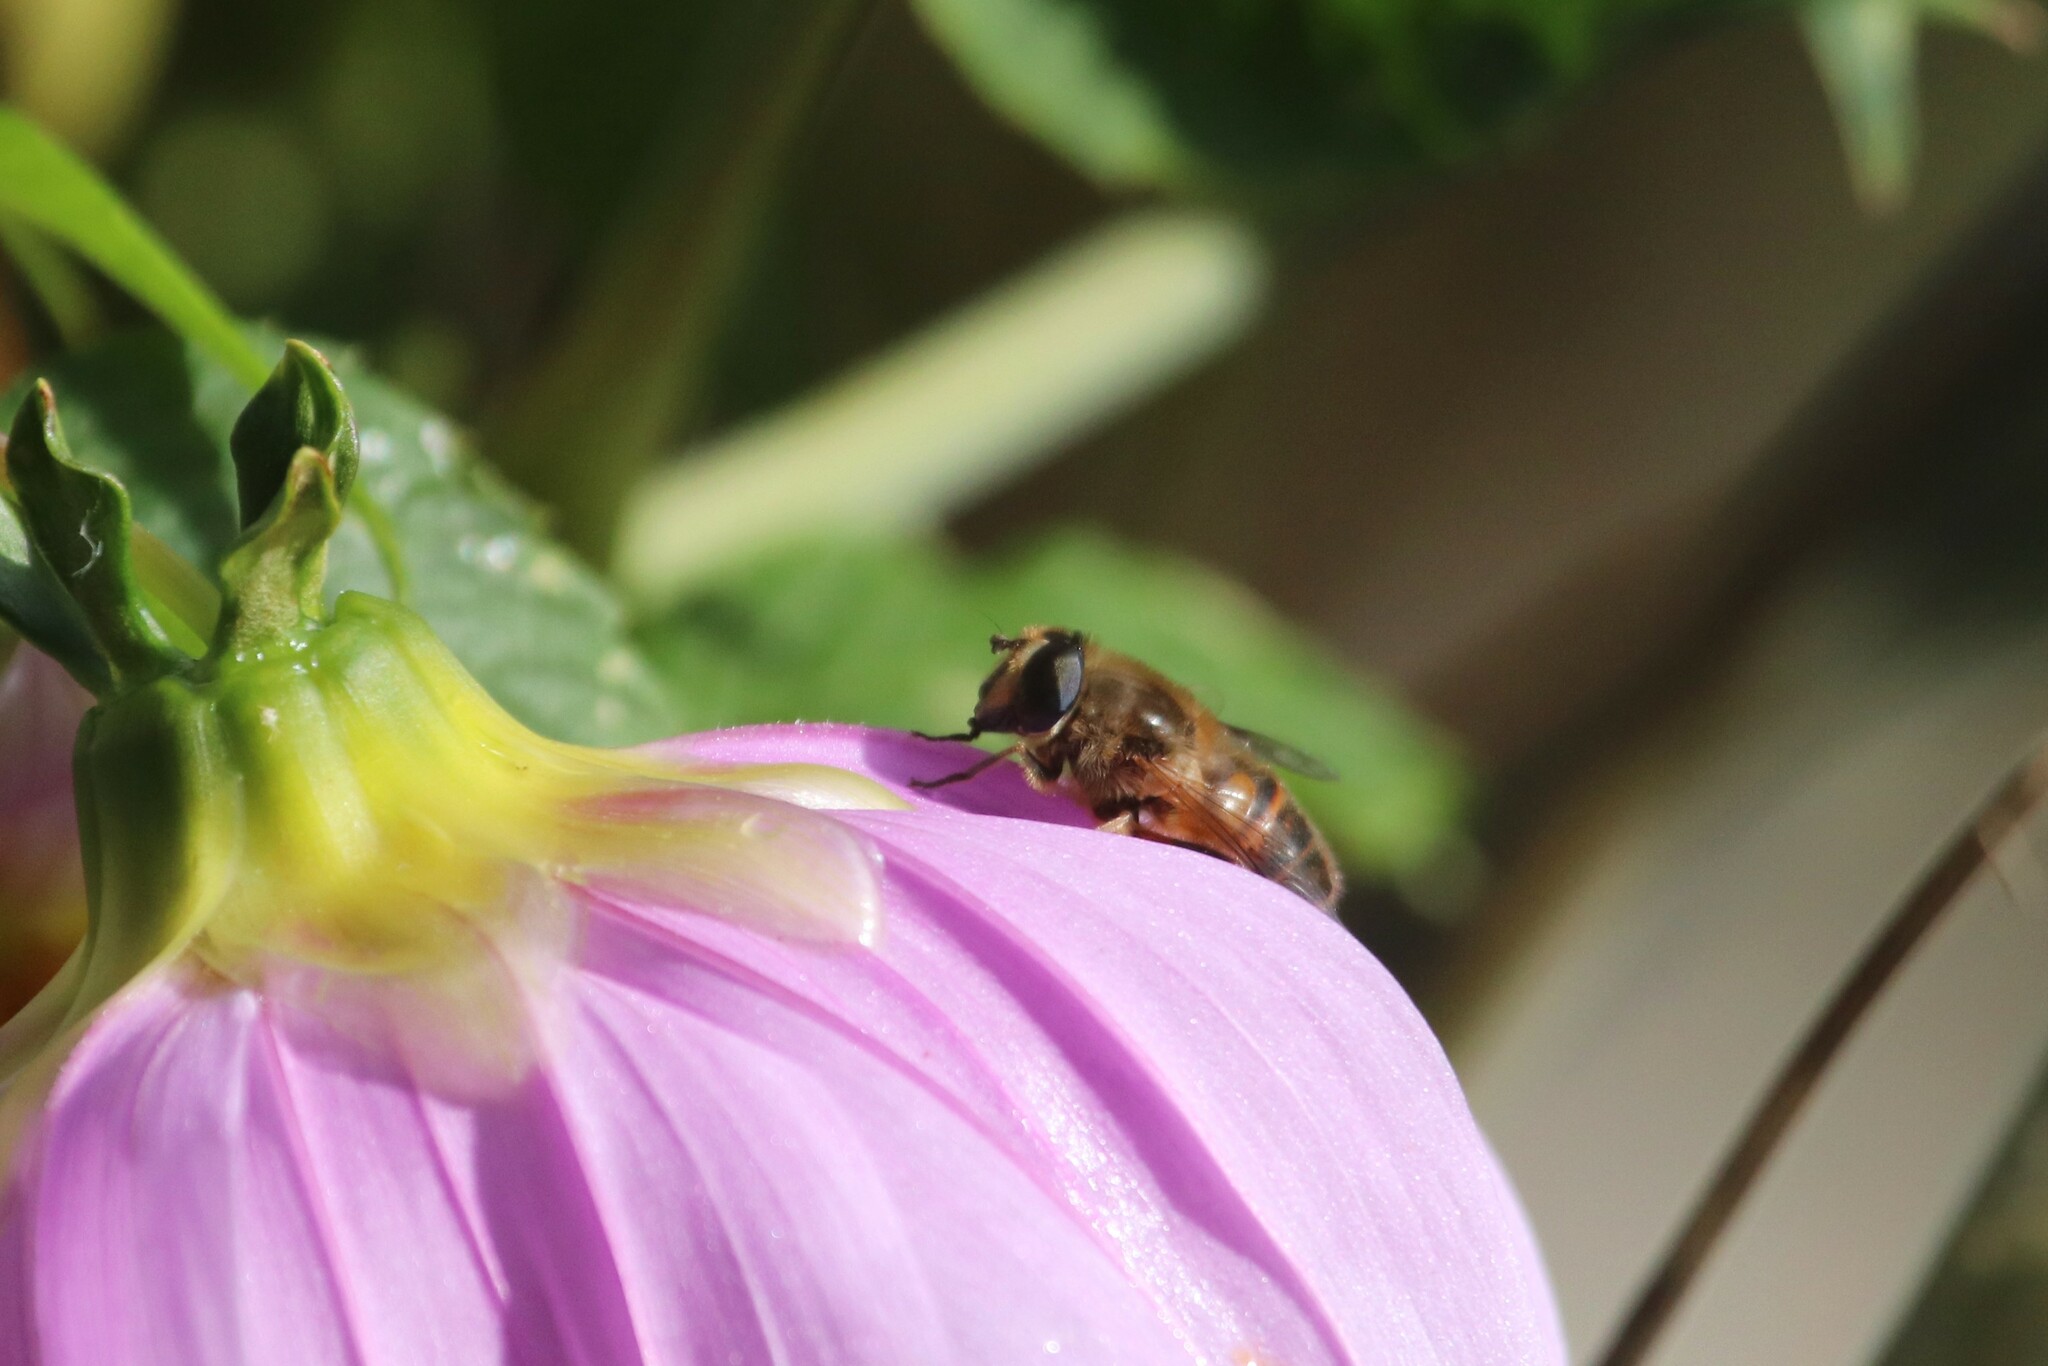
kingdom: Animalia
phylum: Arthropoda
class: Insecta
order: Diptera
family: Syrphidae
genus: Eristalis
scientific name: Eristalis tenax
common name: Drone fly
